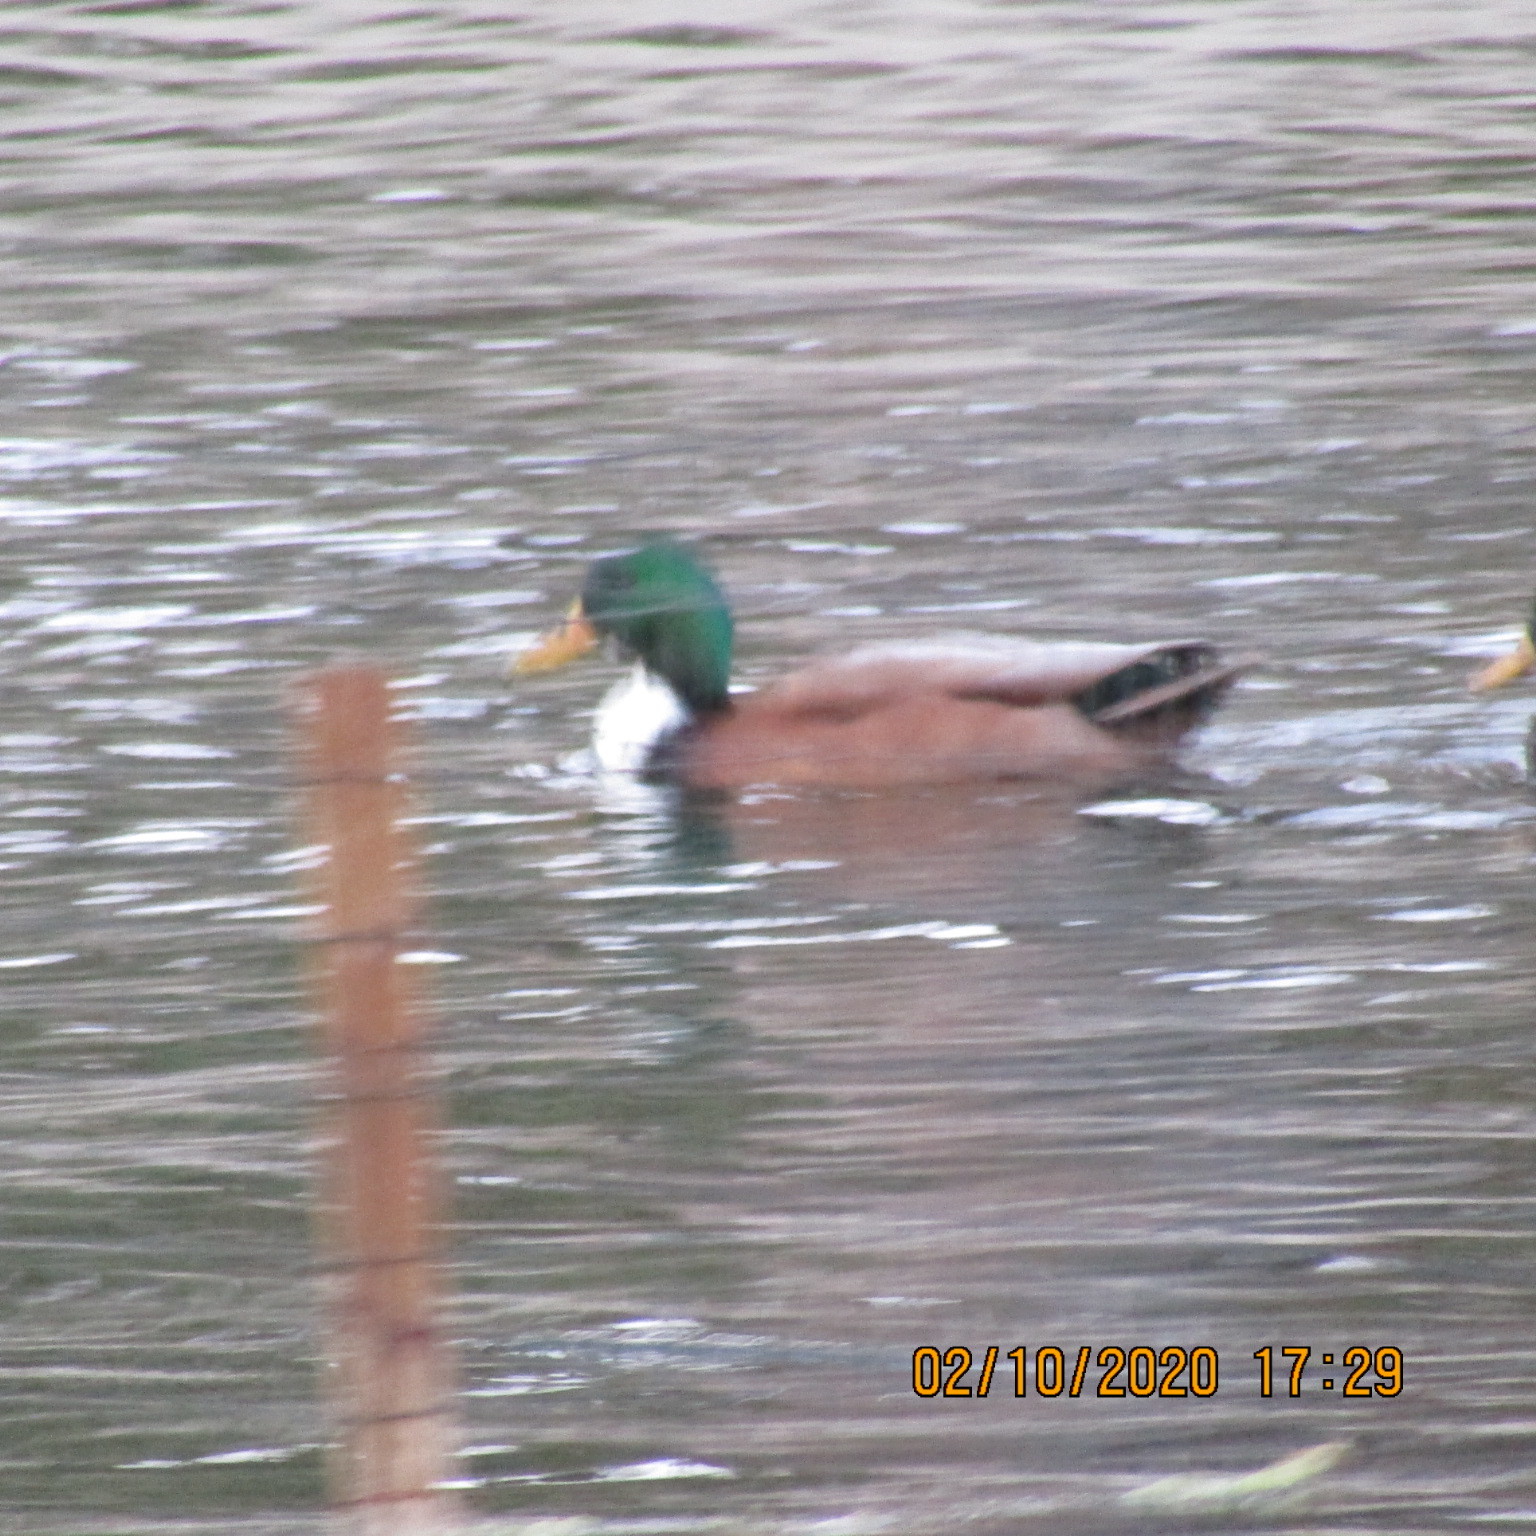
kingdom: Animalia
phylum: Chordata
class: Aves
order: Anseriformes
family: Anatidae
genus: Anas
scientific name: Anas platyrhynchos
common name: Mallard
